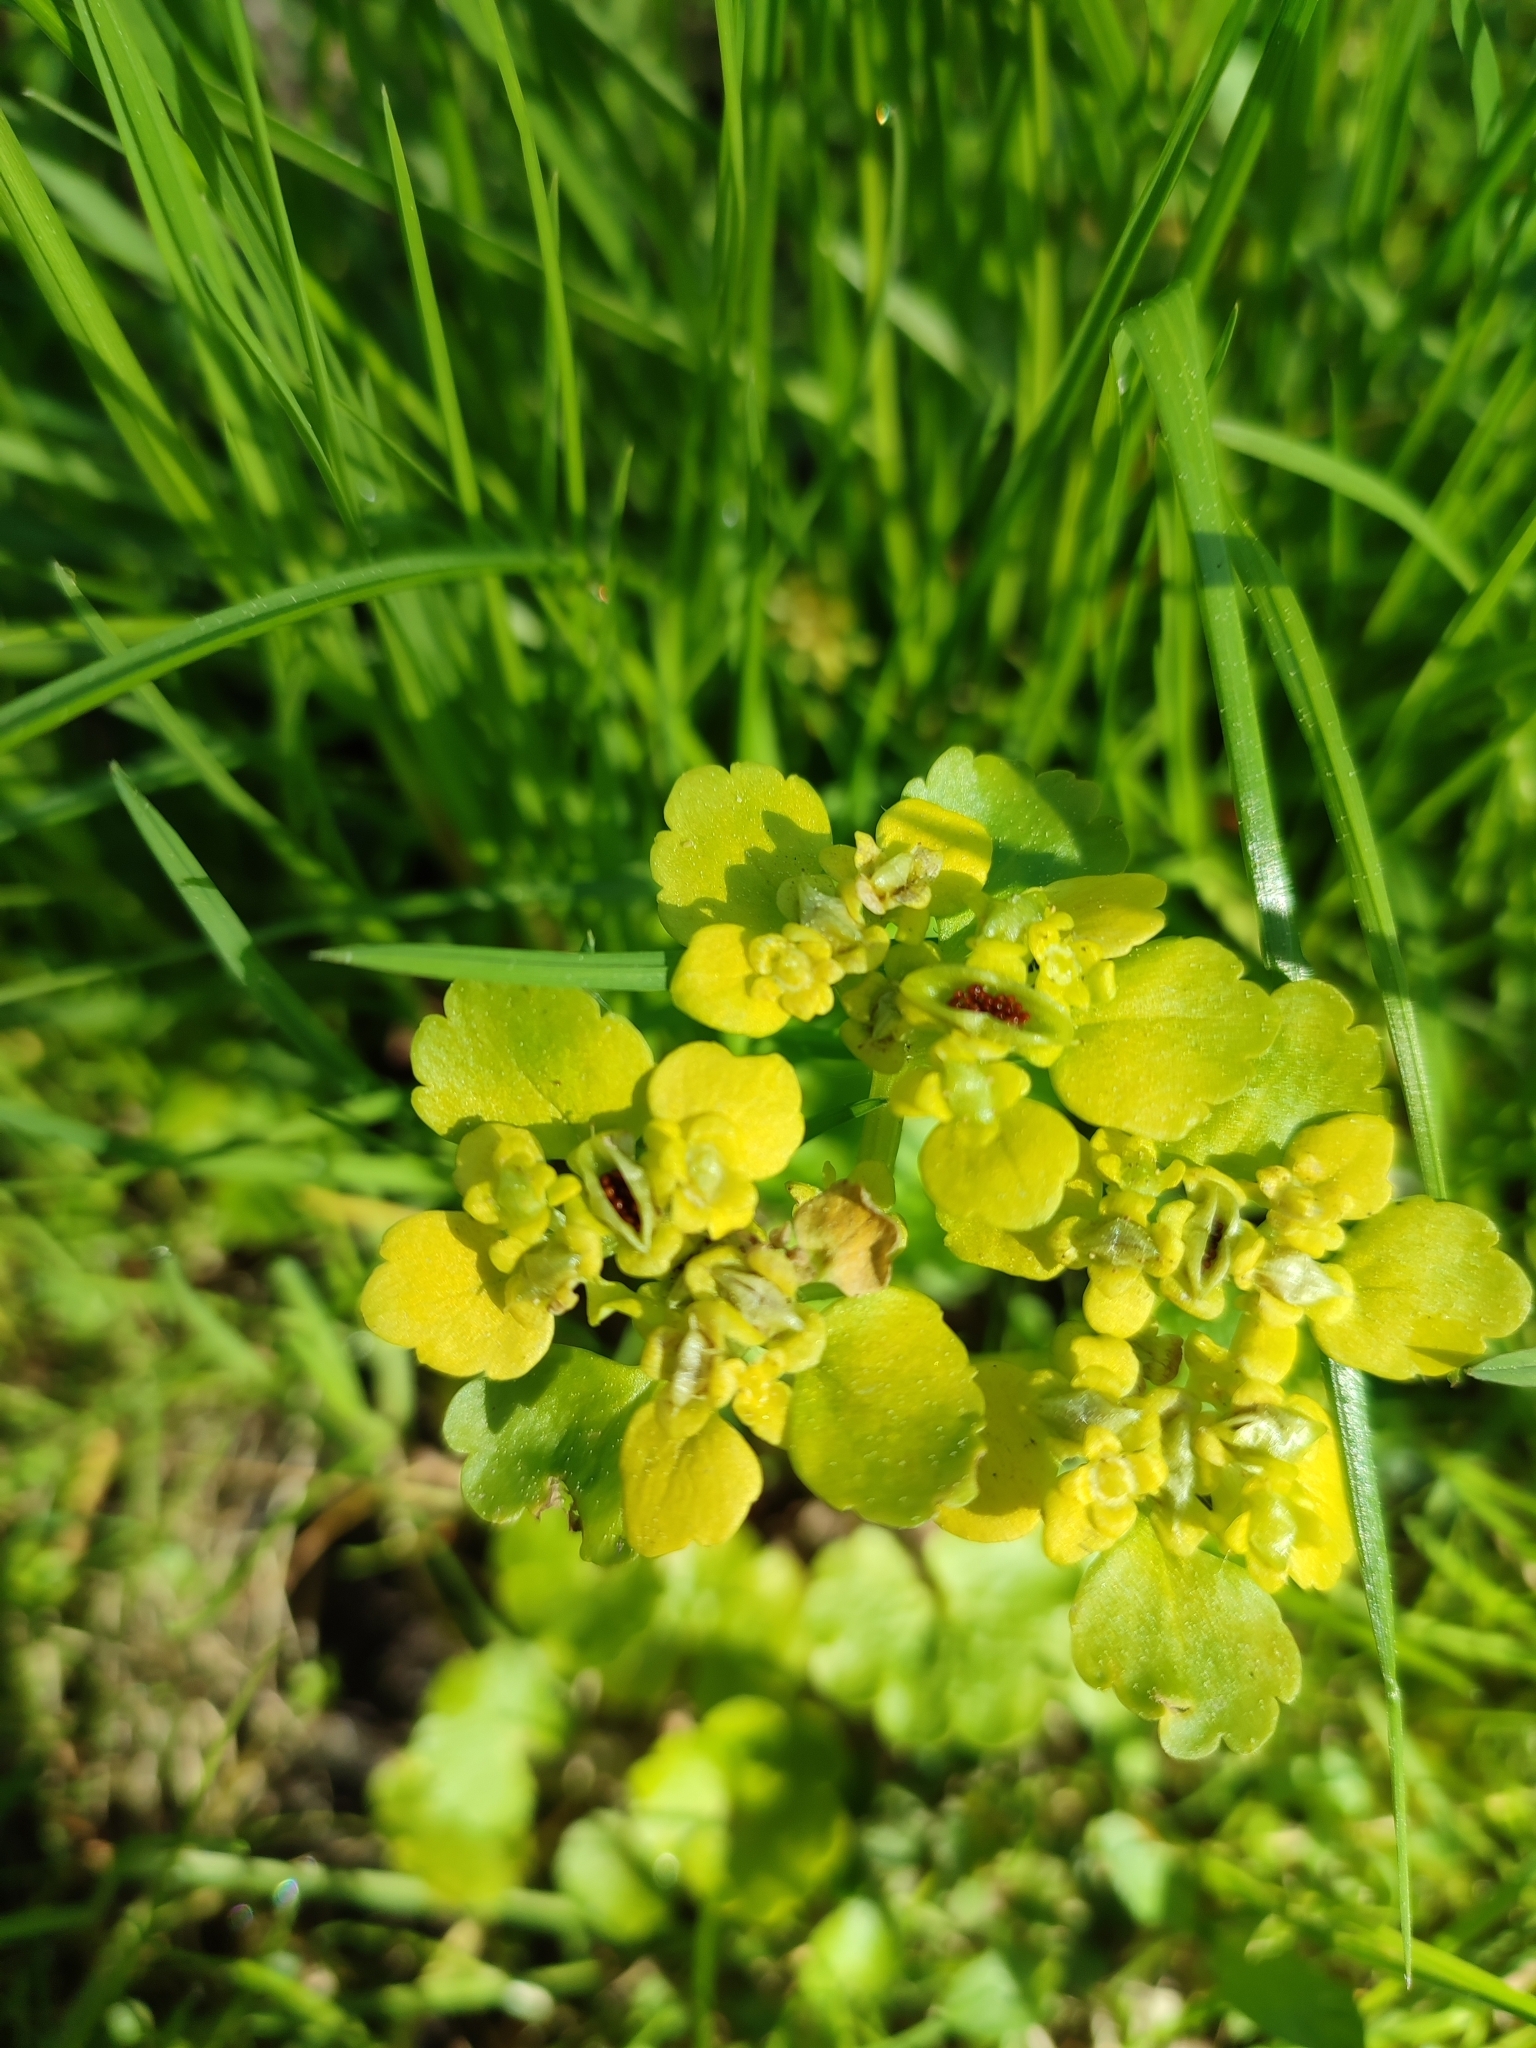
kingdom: Plantae
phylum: Tracheophyta
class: Magnoliopsida
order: Saxifragales
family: Saxifragaceae
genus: Chrysosplenium
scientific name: Chrysosplenium alternifolium
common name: Alternate-leaved golden-saxifrage
